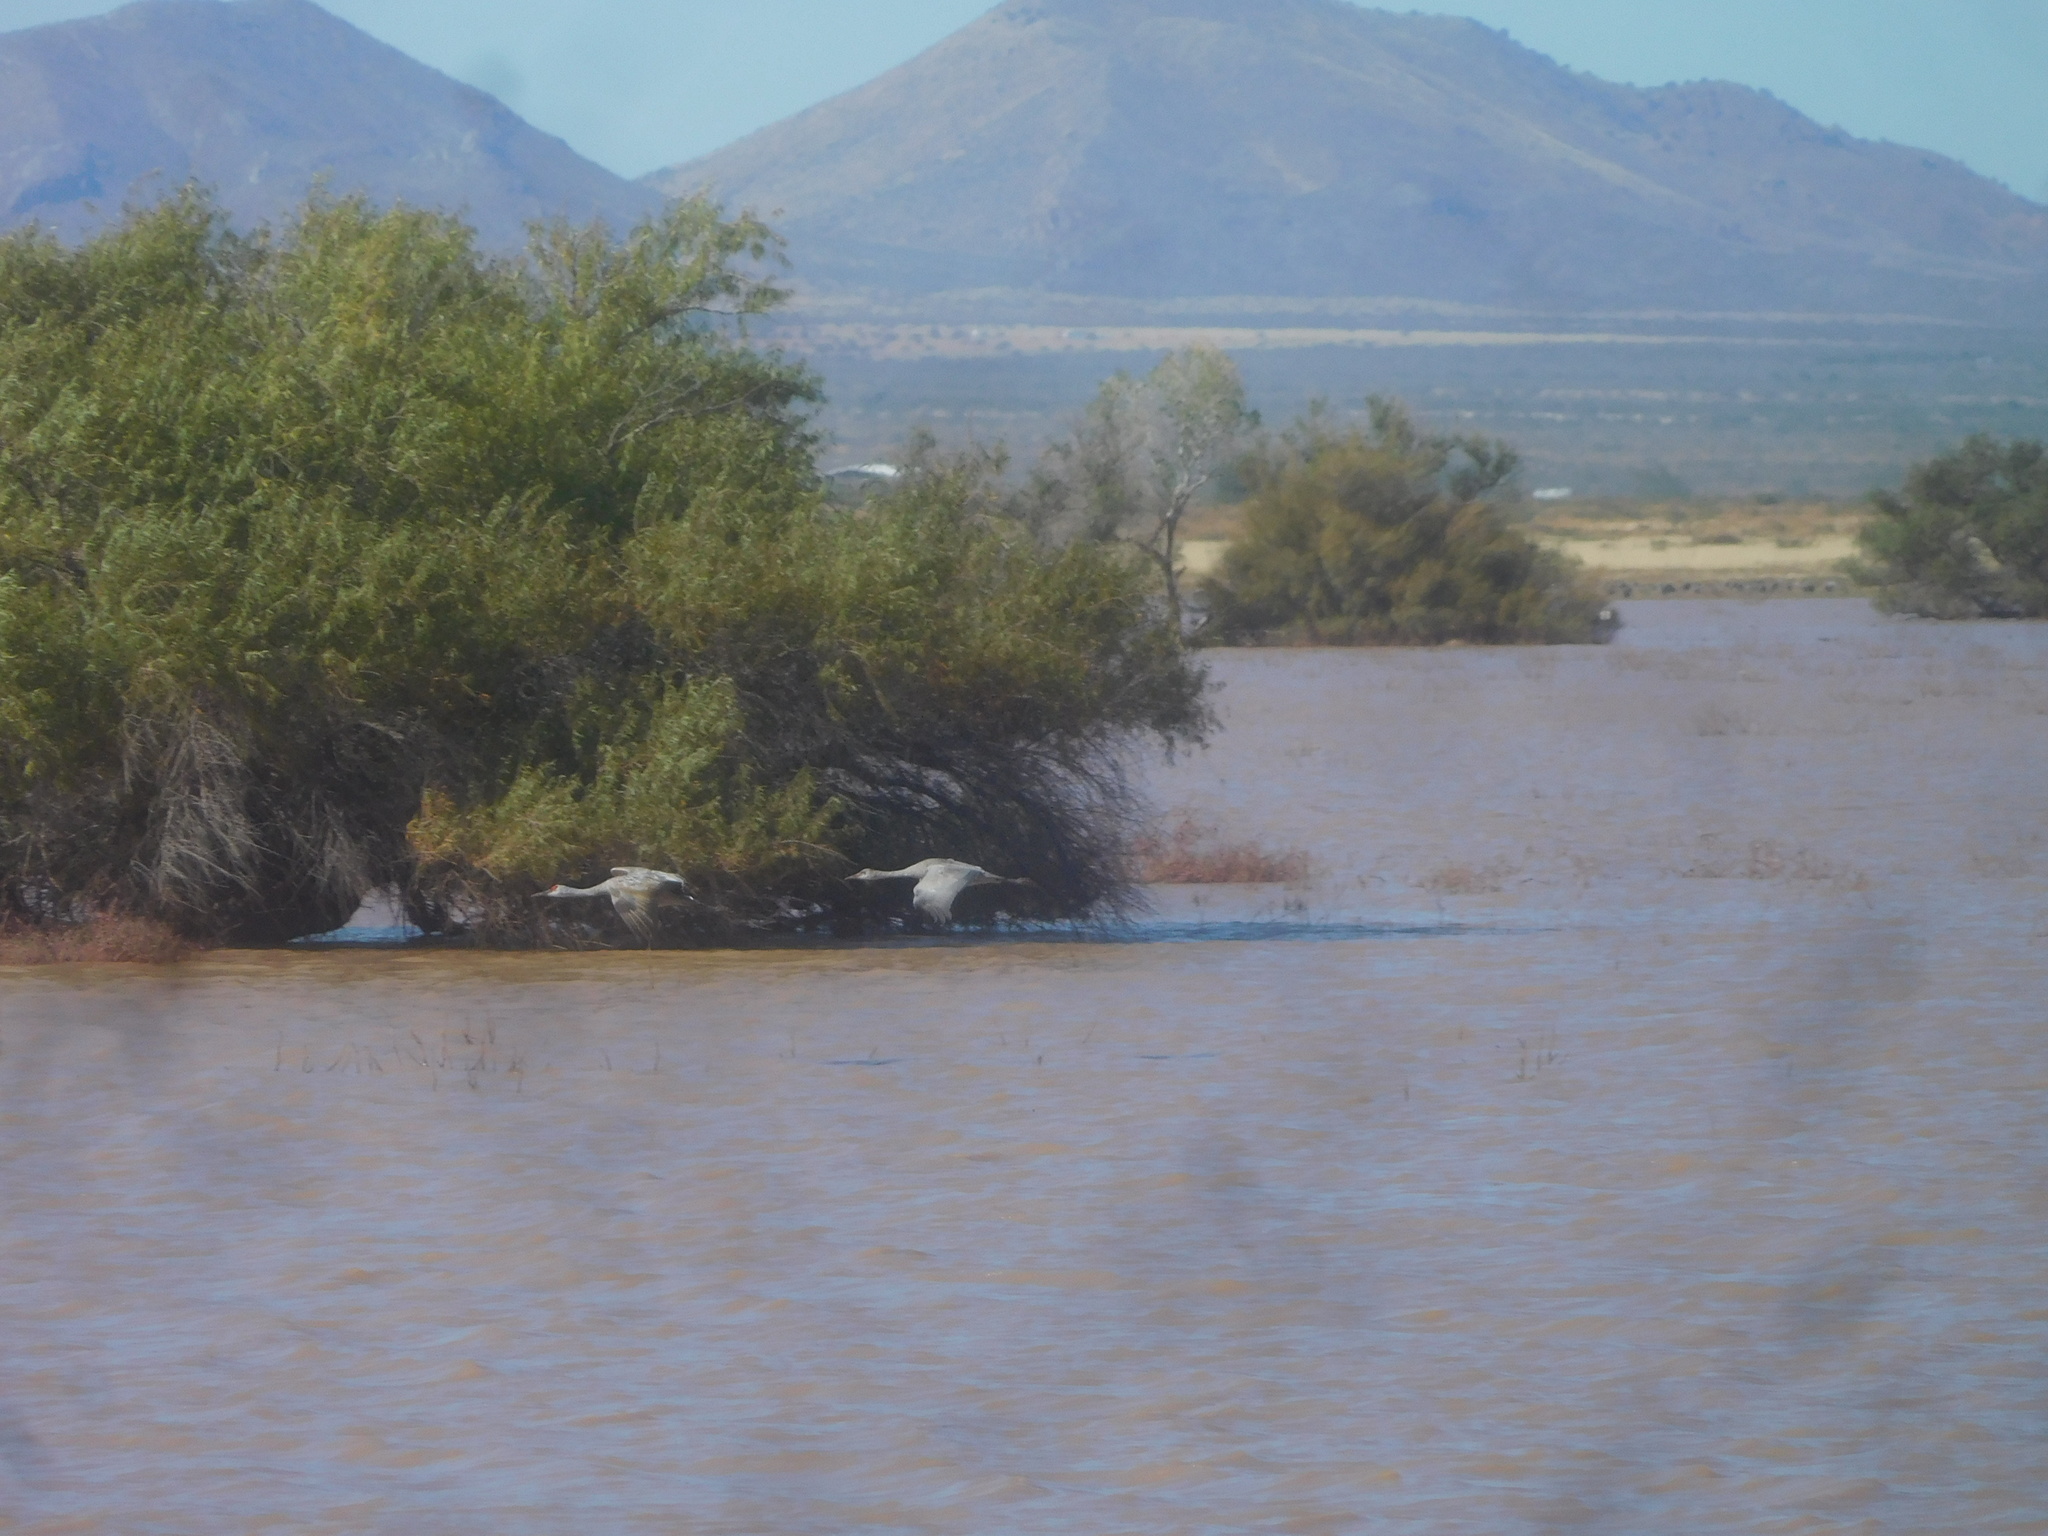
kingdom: Animalia
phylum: Chordata
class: Aves
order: Gruiformes
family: Gruidae
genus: Grus
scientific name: Grus canadensis
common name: Sandhill crane
